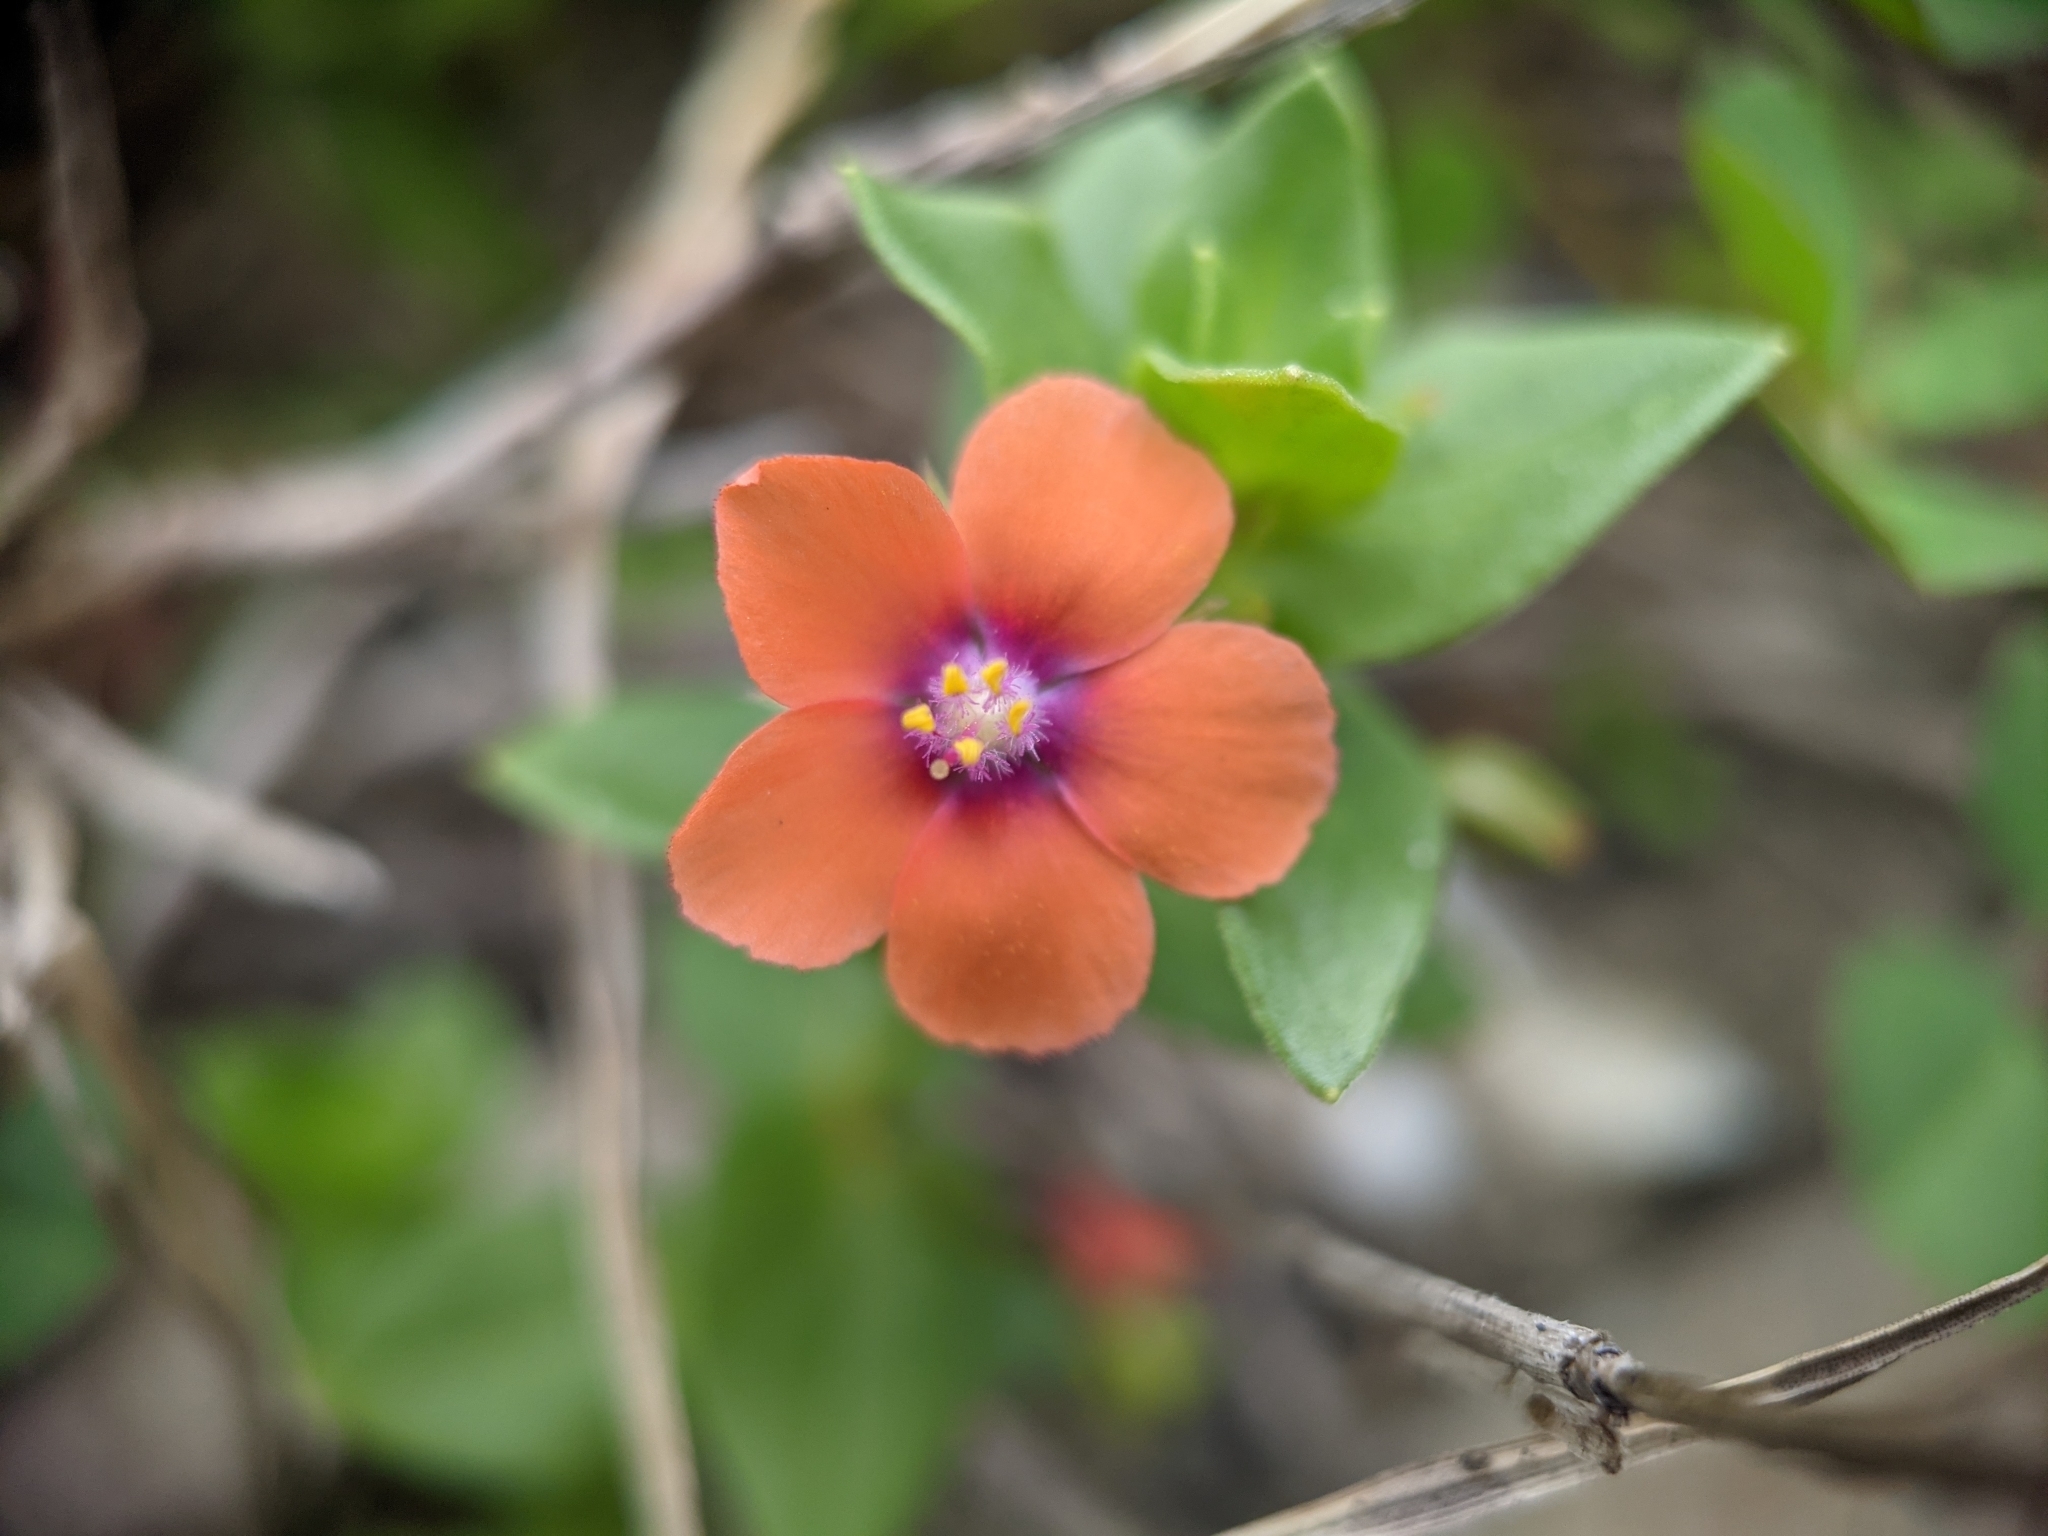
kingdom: Plantae
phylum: Tracheophyta
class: Magnoliopsida
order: Ericales
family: Primulaceae
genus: Lysimachia
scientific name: Lysimachia arvensis
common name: Scarlet pimpernel
